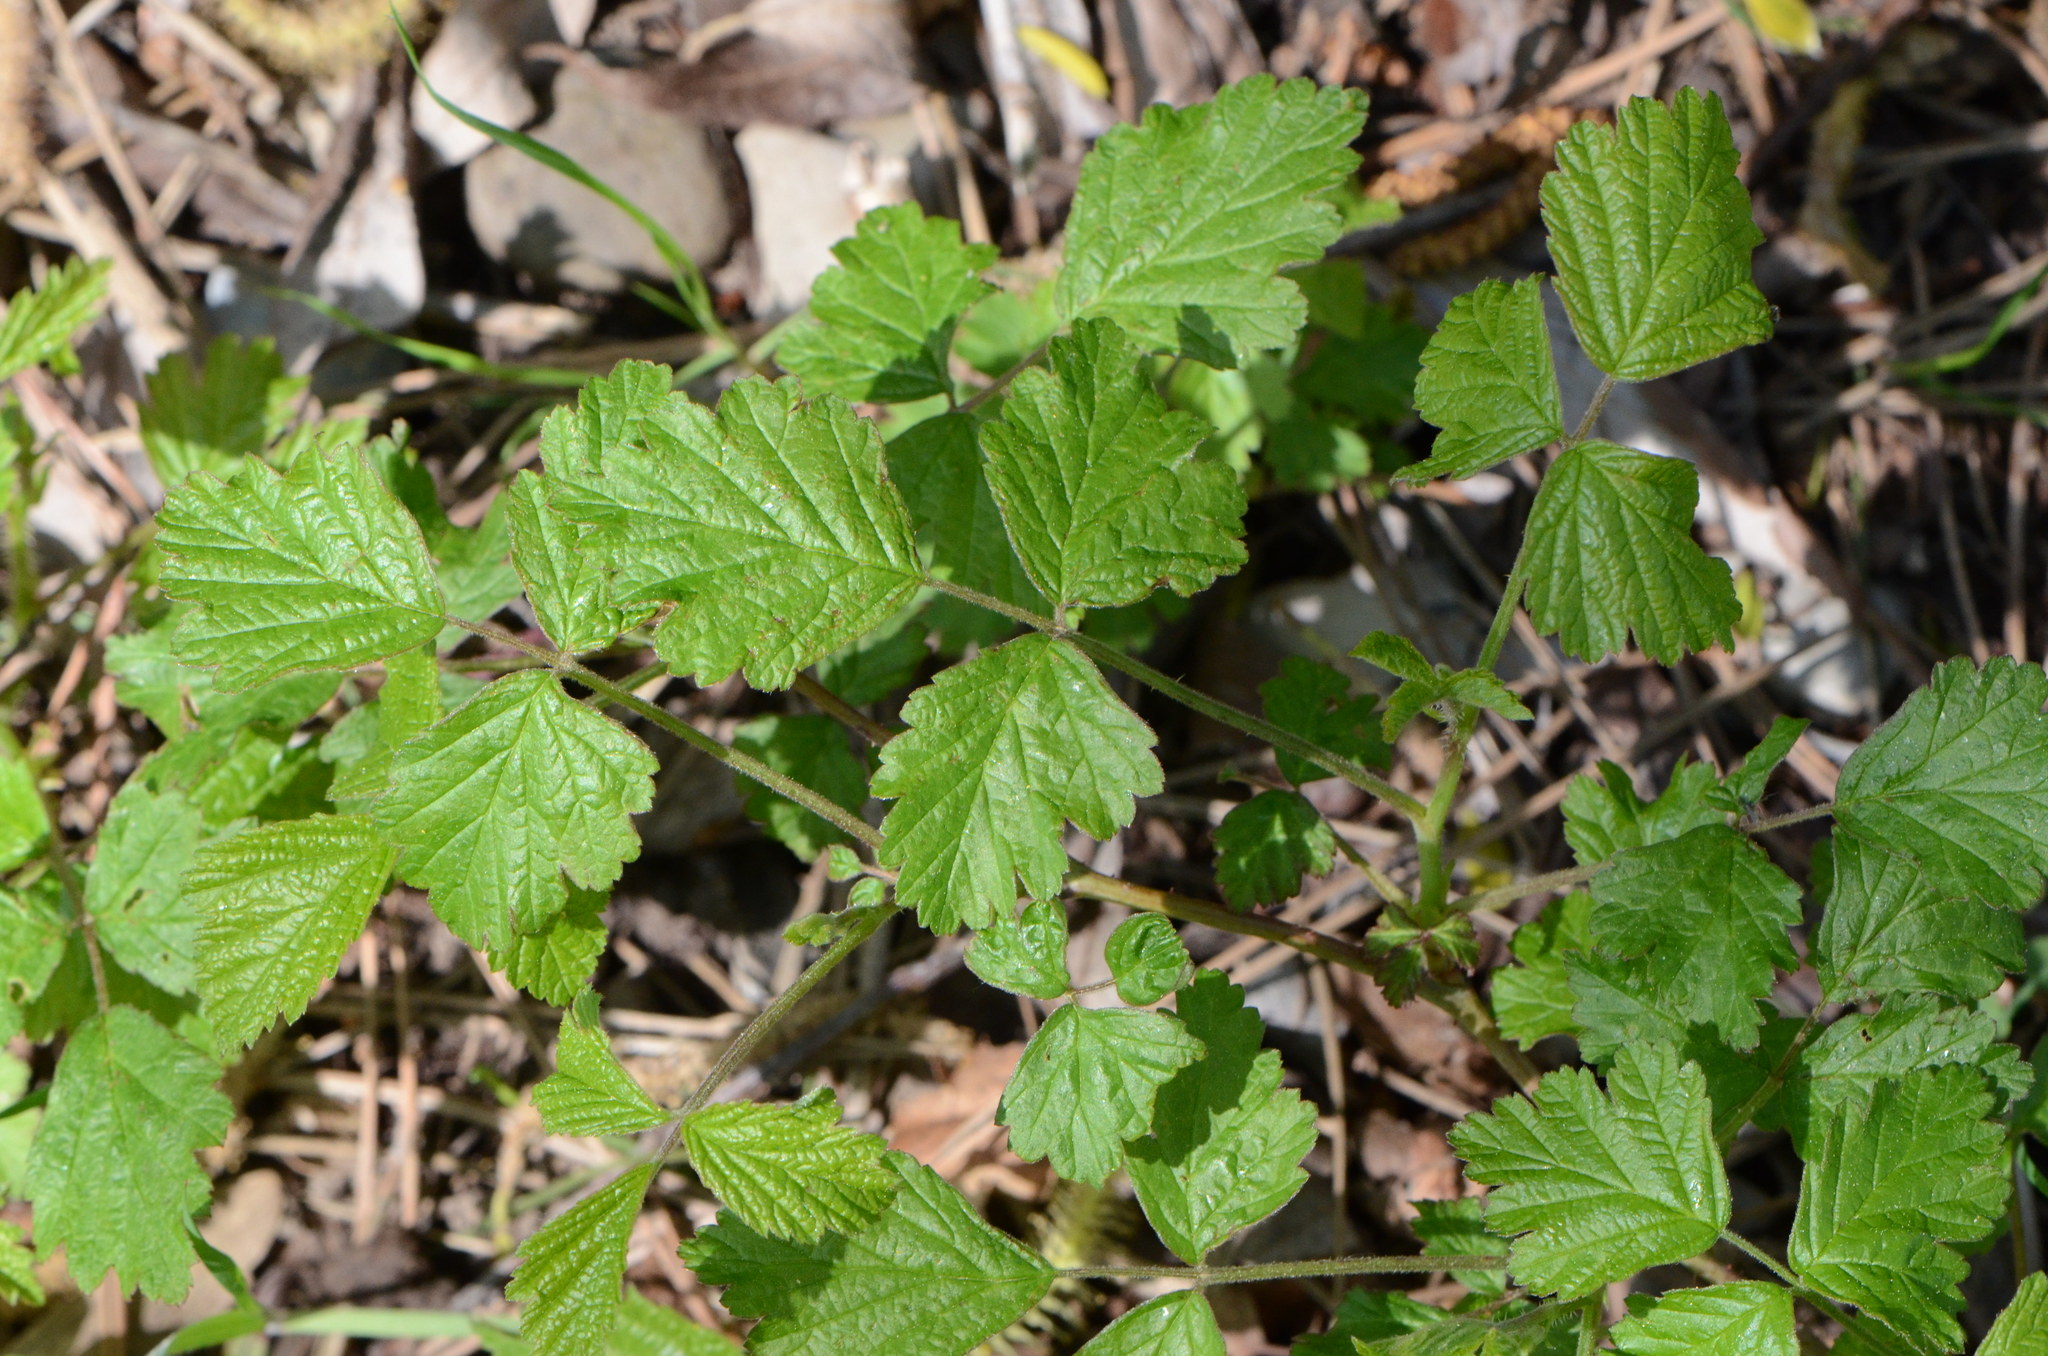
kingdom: Plantae
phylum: Tracheophyta
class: Magnoliopsida
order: Rosales
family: Rosaceae
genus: Rubus
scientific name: Rubus caesius
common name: Dewberry
